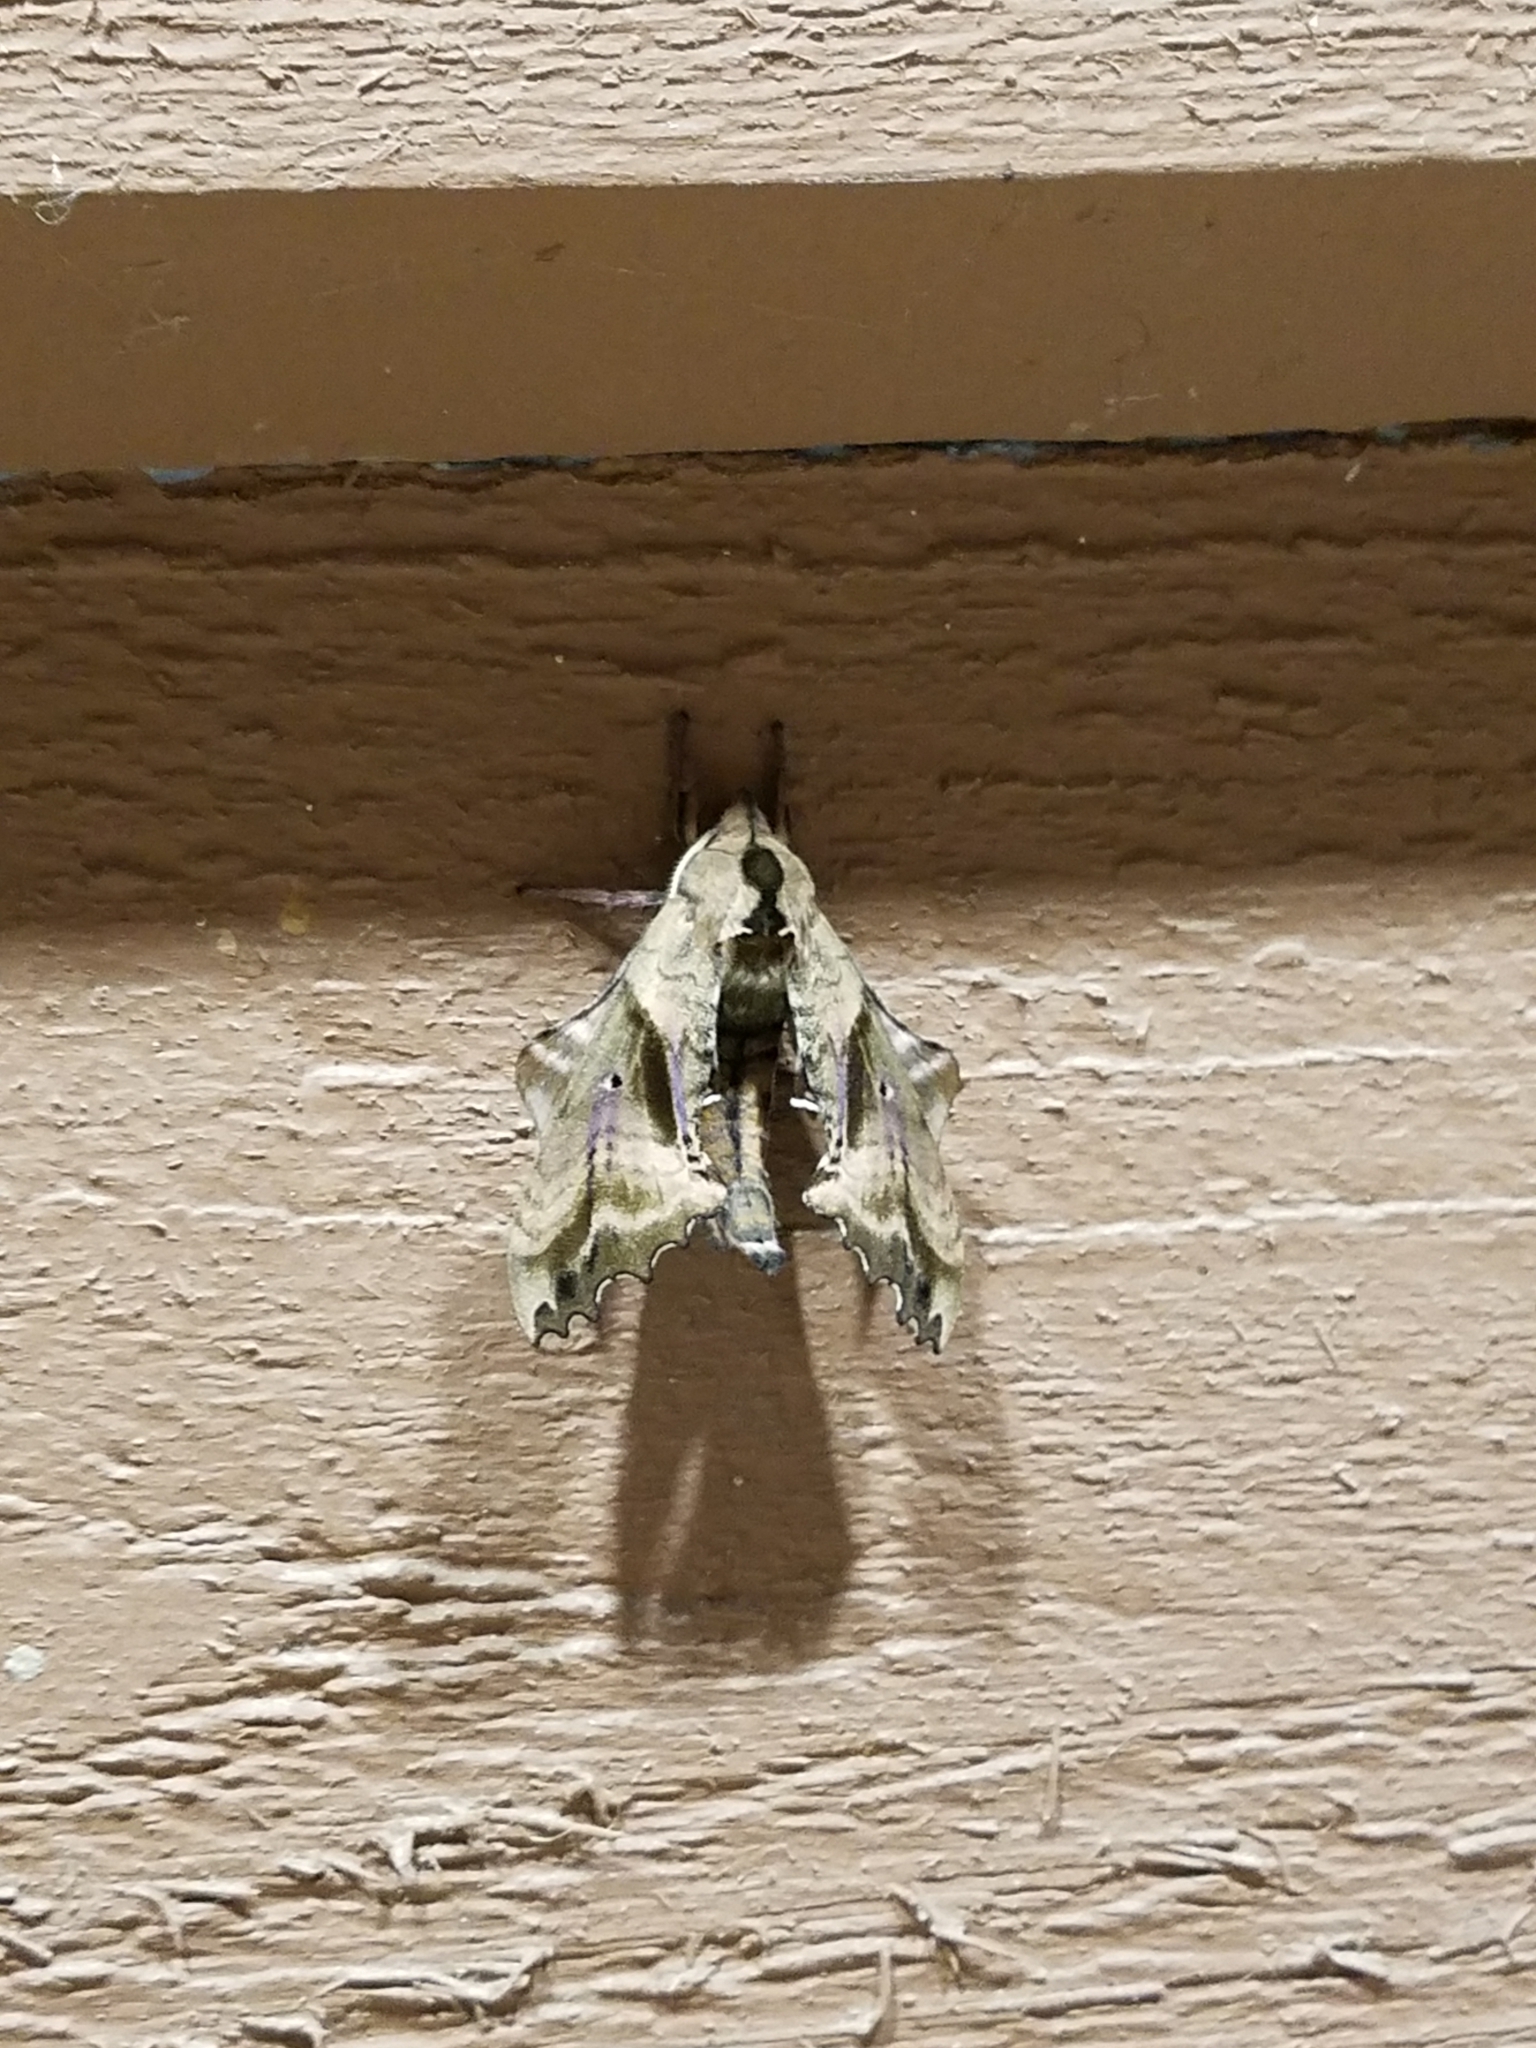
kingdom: Animalia
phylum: Arthropoda
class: Insecta
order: Lepidoptera
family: Sphingidae
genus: Paonias
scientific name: Paonias excaecata
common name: Blind-eyed sphinx
